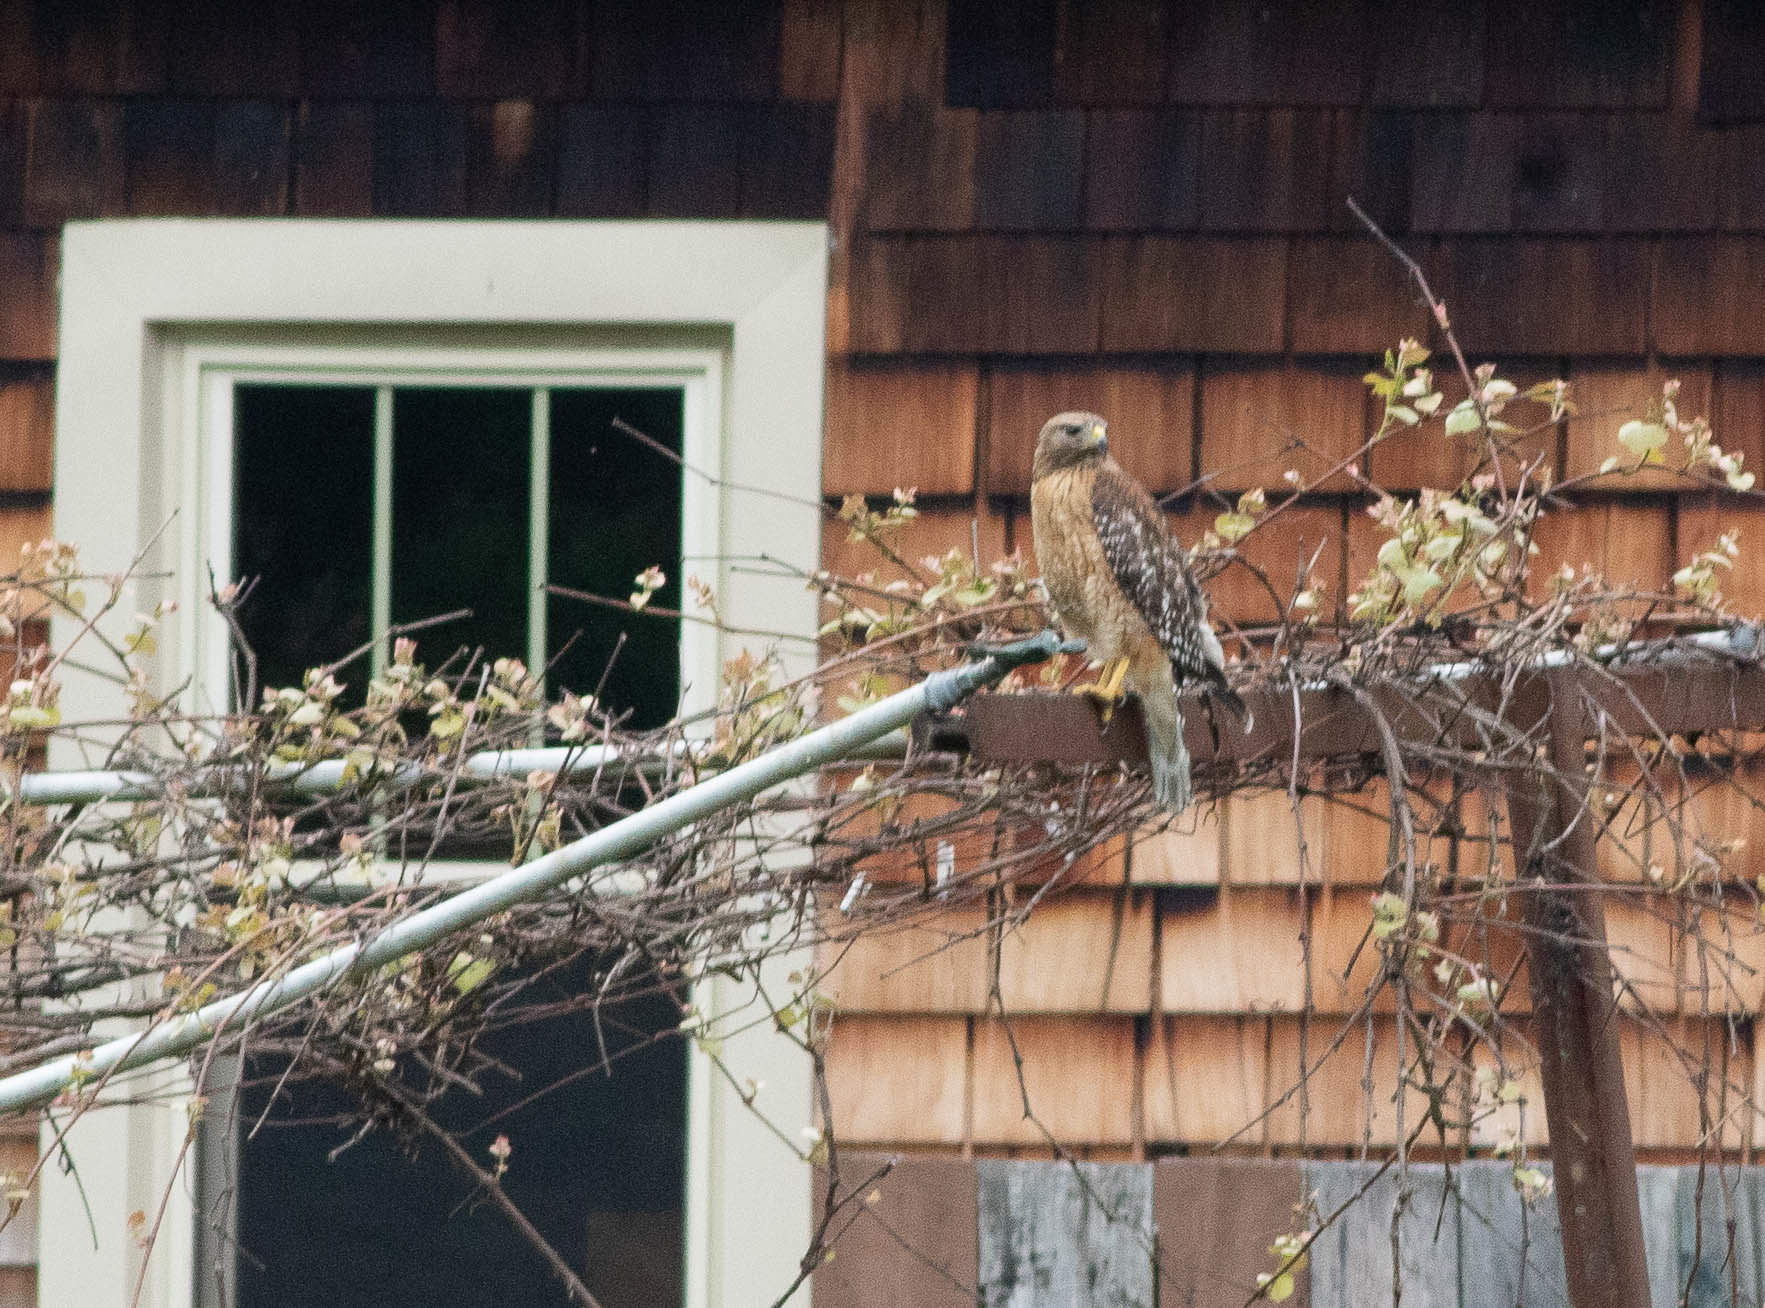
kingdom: Animalia
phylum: Chordata
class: Aves
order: Accipitriformes
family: Accipitridae
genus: Buteo
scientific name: Buteo lineatus
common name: Red-shouldered hawk
